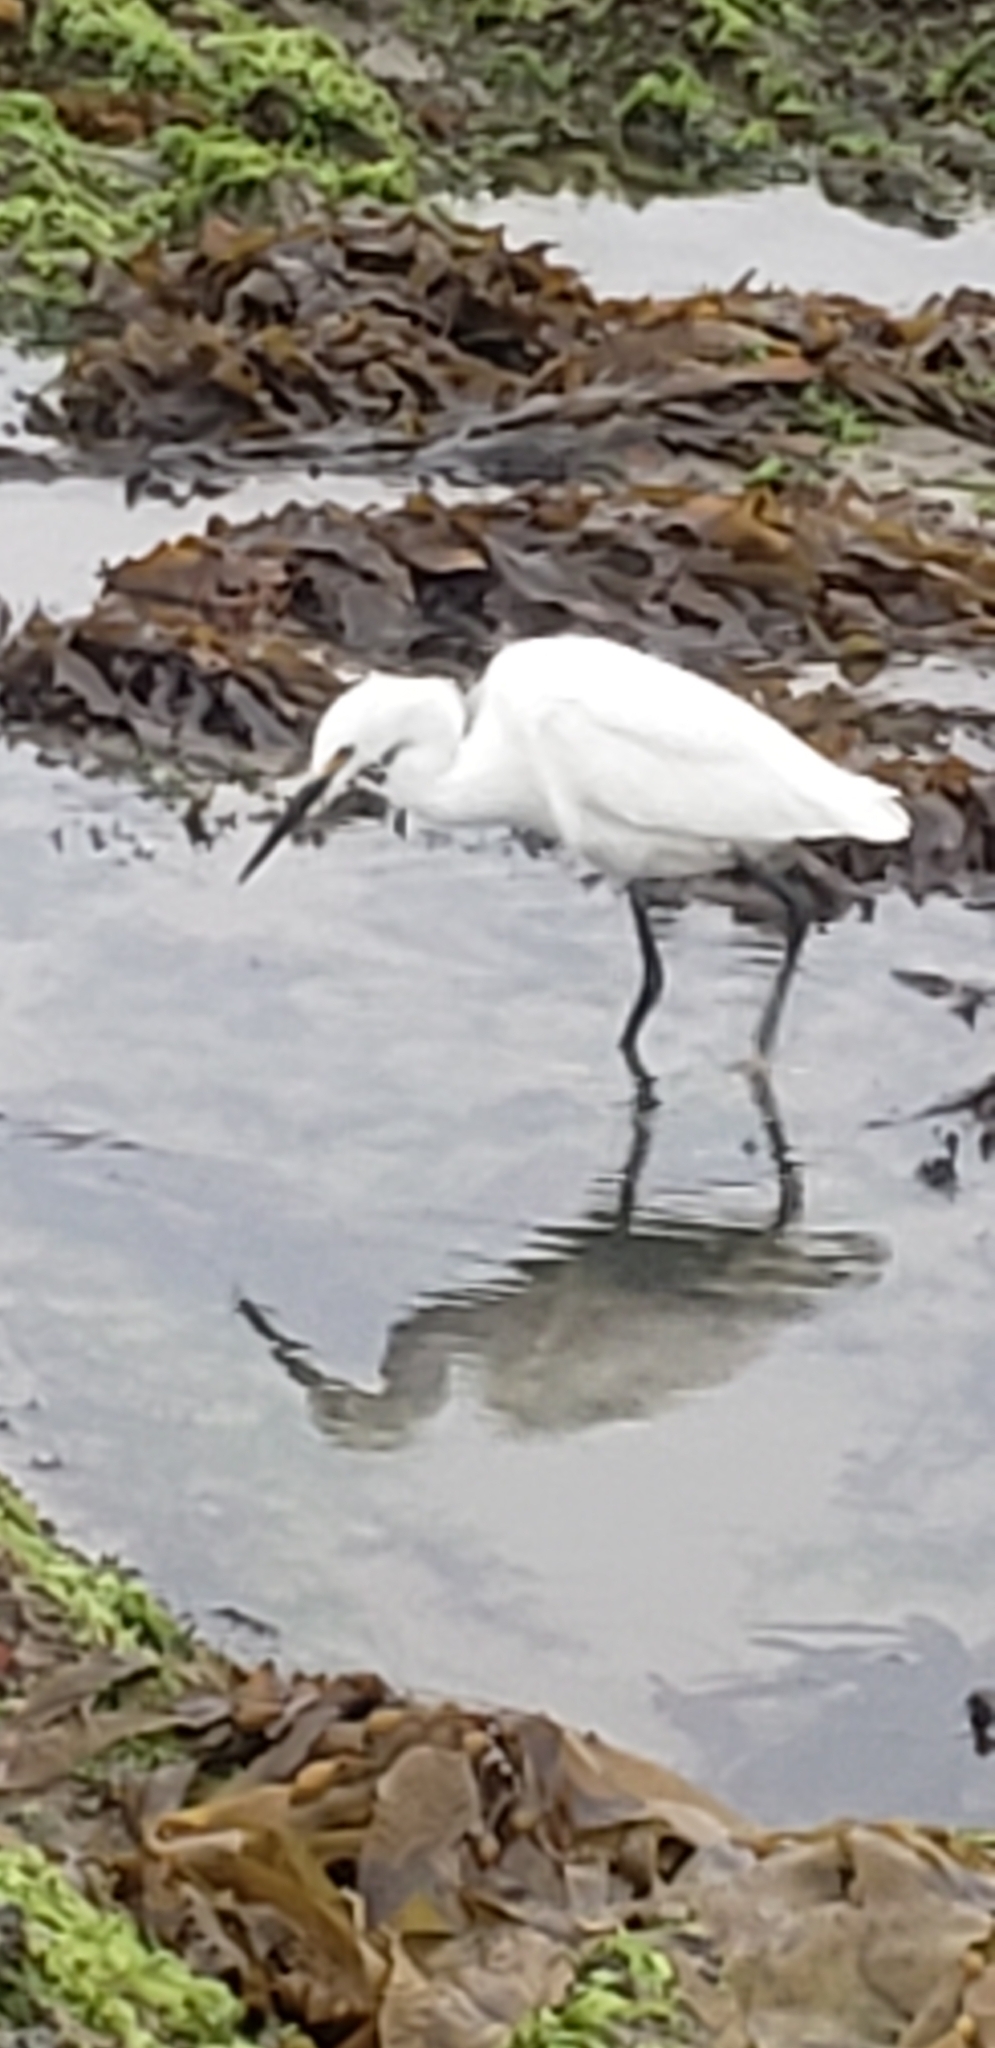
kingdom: Animalia
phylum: Chordata
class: Aves
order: Pelecaniformes
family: Ardeidae
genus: Egretta
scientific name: Egretta thula
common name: Snowy egret
